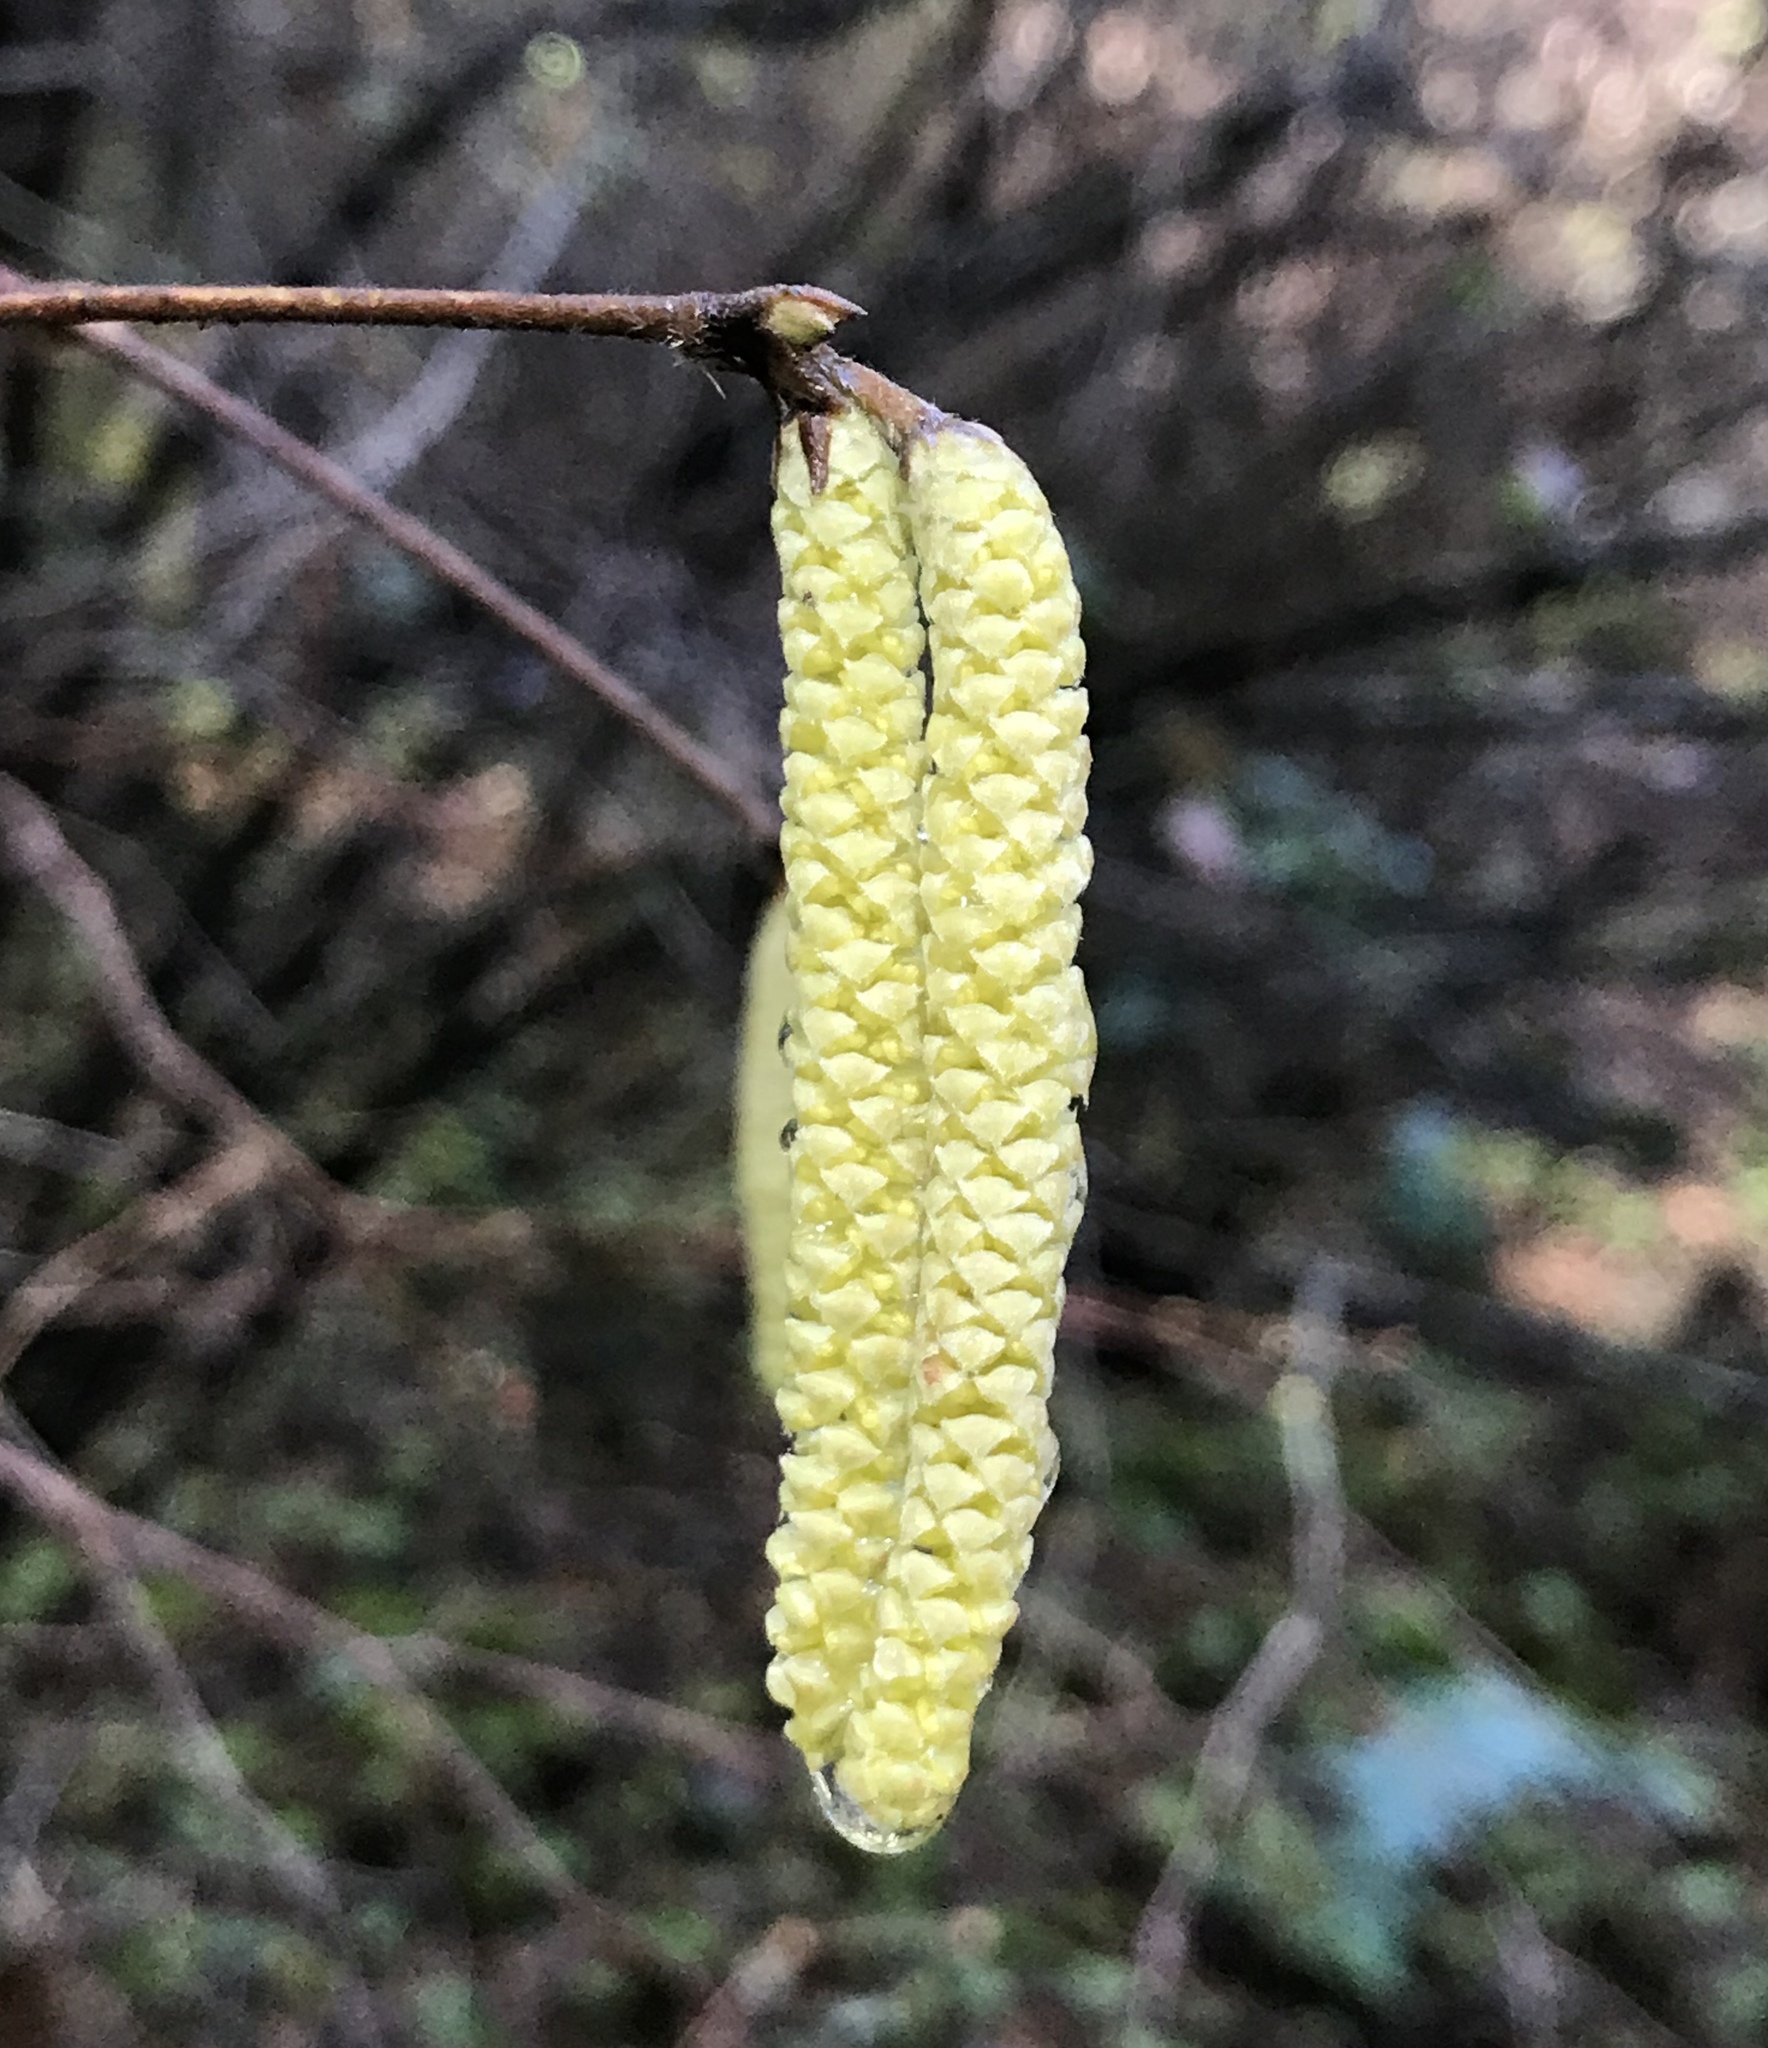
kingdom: Plantae
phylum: Tracheophyta
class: Magnoliopsida
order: Fagales
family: Betulaceae
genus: Corylus
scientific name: Corylus cornuta
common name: Beaked hazel
